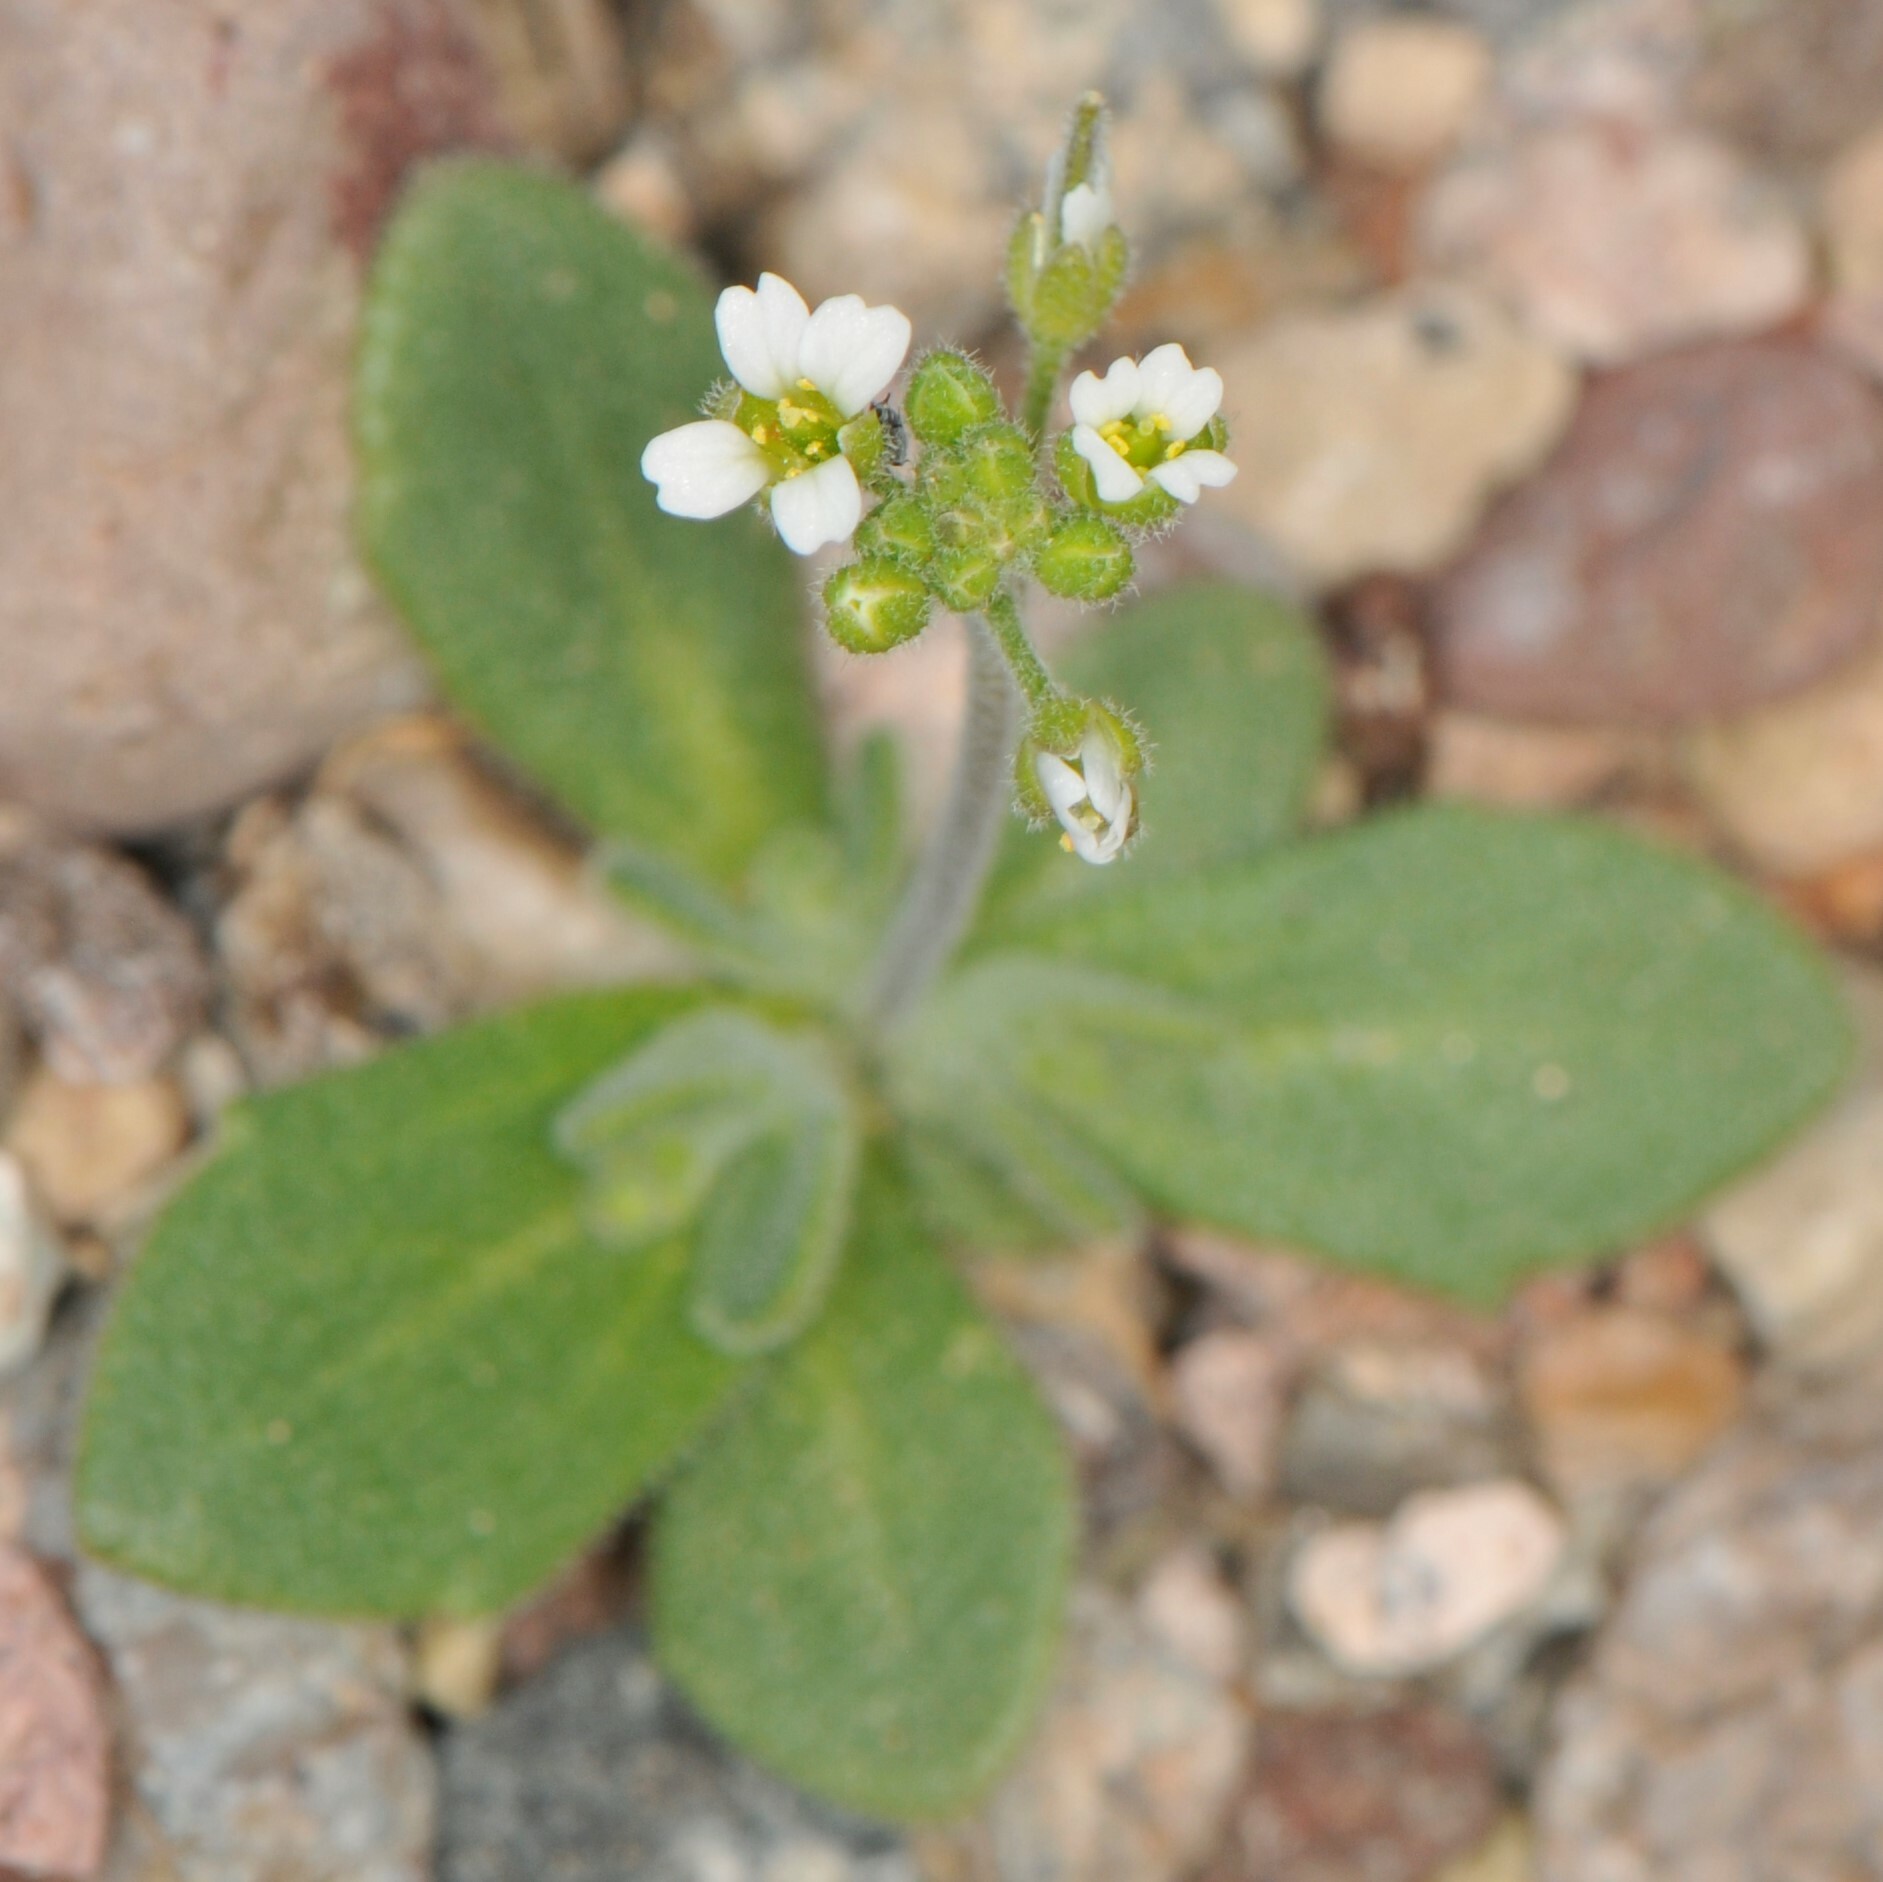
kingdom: Plantae
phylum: Tracheophyta
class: Magnoliopsida
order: Brassicales
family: Brassicaceae
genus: Tomostima
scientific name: Tomostima cuneifolia
